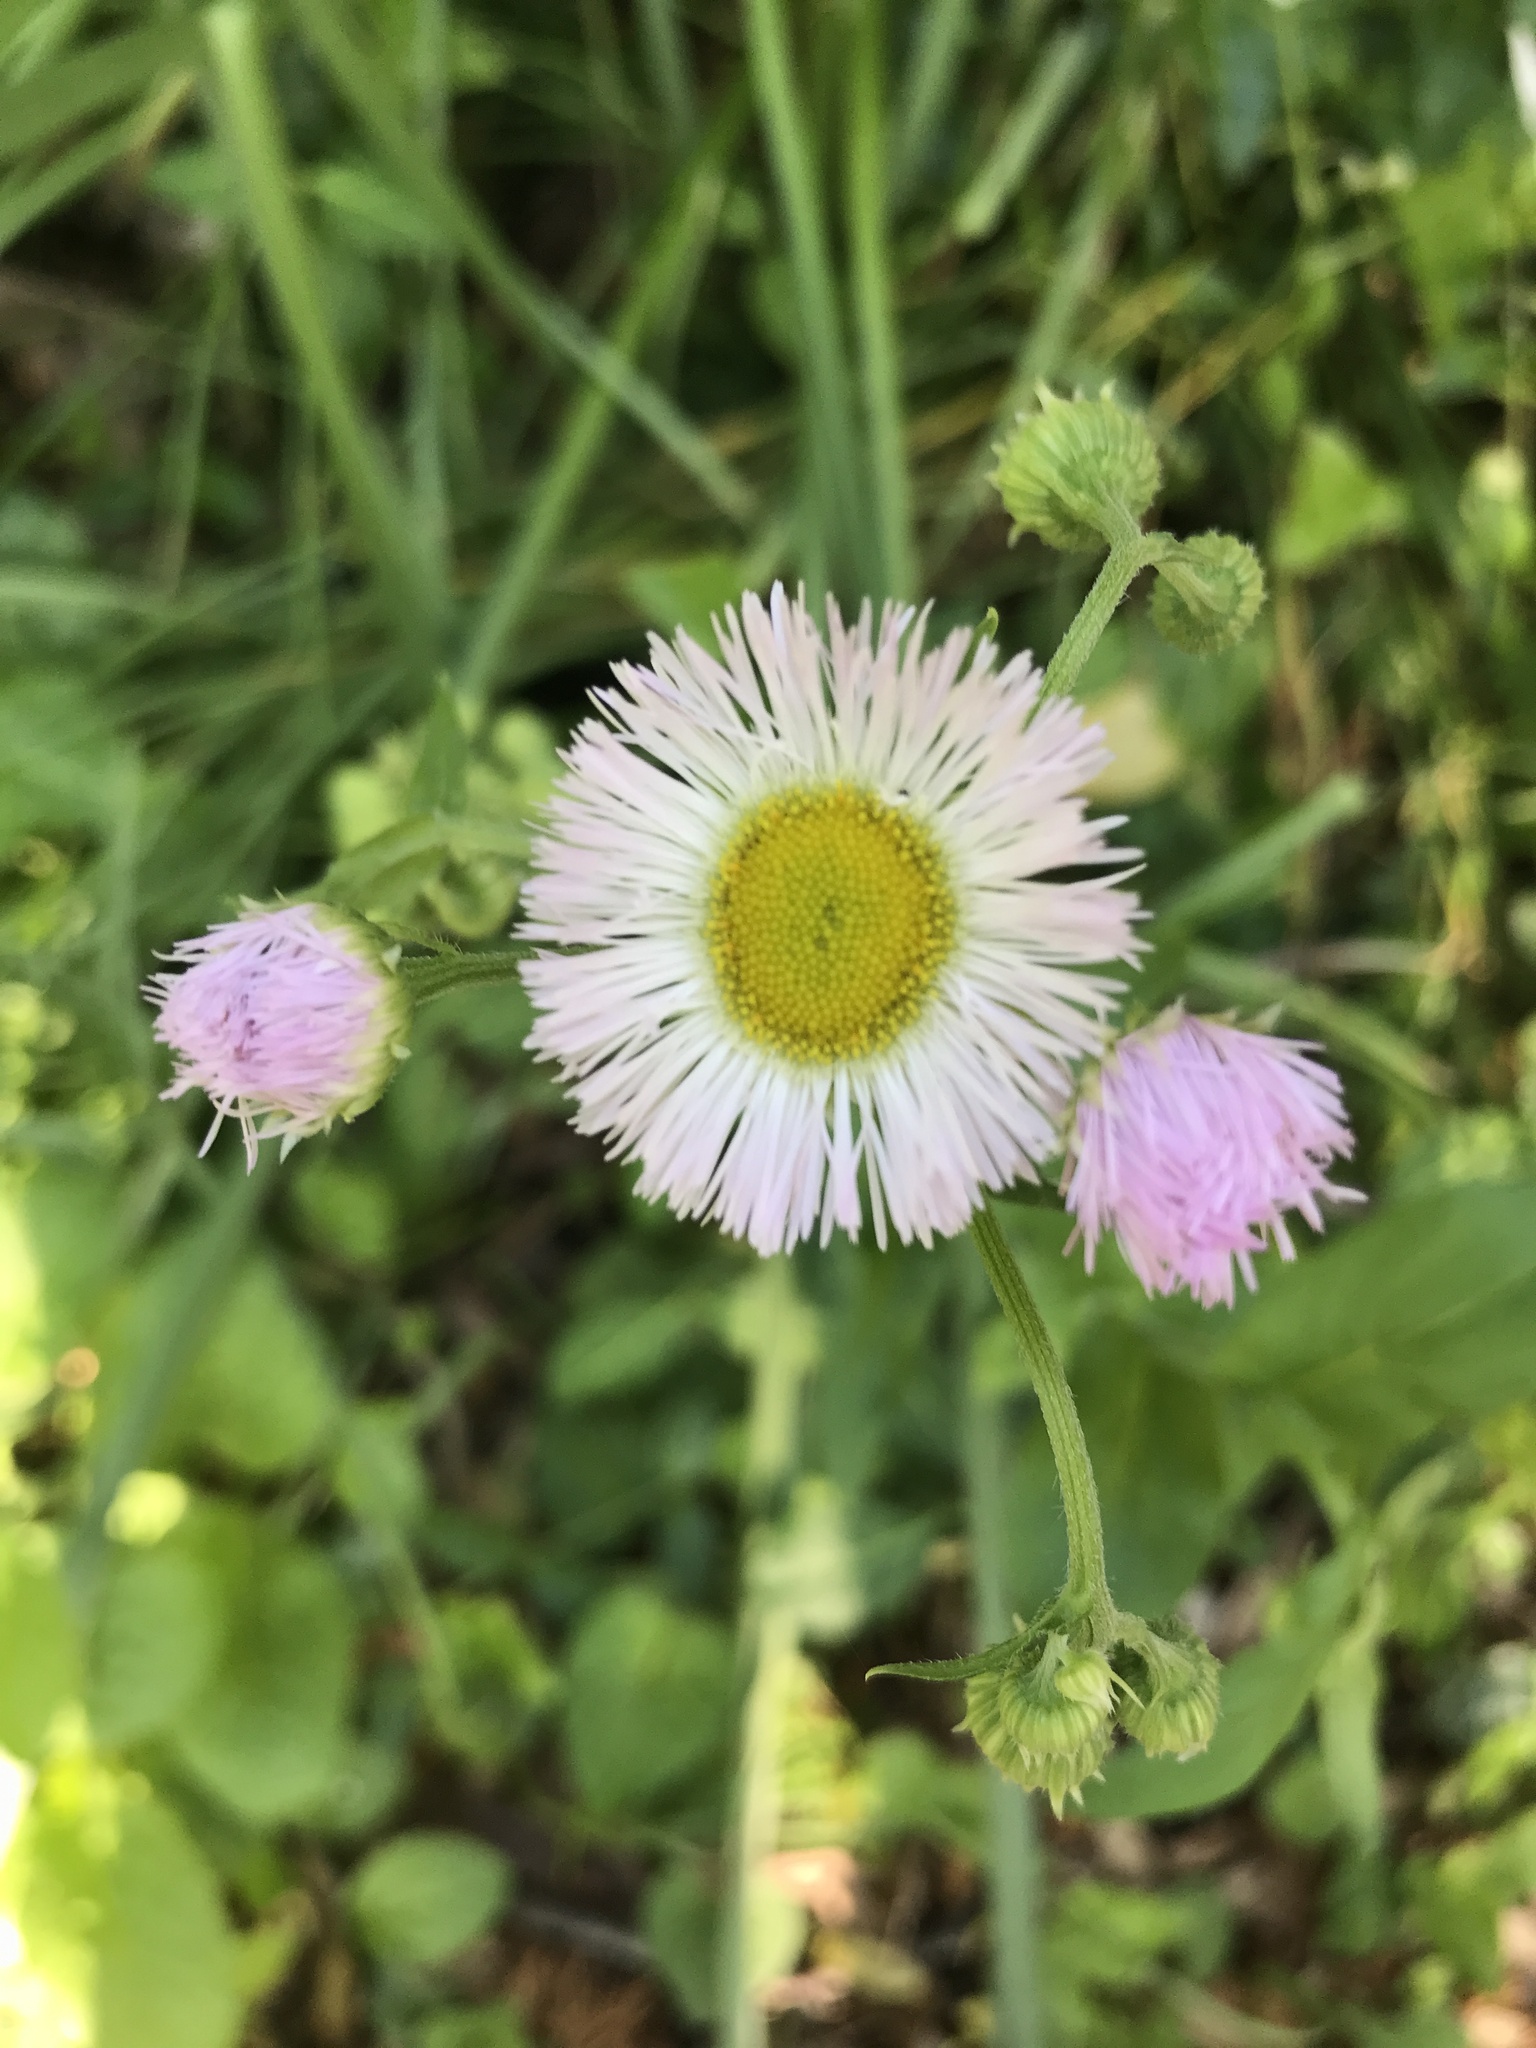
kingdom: Plantae
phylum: Tracheophyta
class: Magnoliopsida
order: Asterales
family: Asteraceae
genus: Erigeron
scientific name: Erigeron philadelphicus
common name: Robin's-plantain
